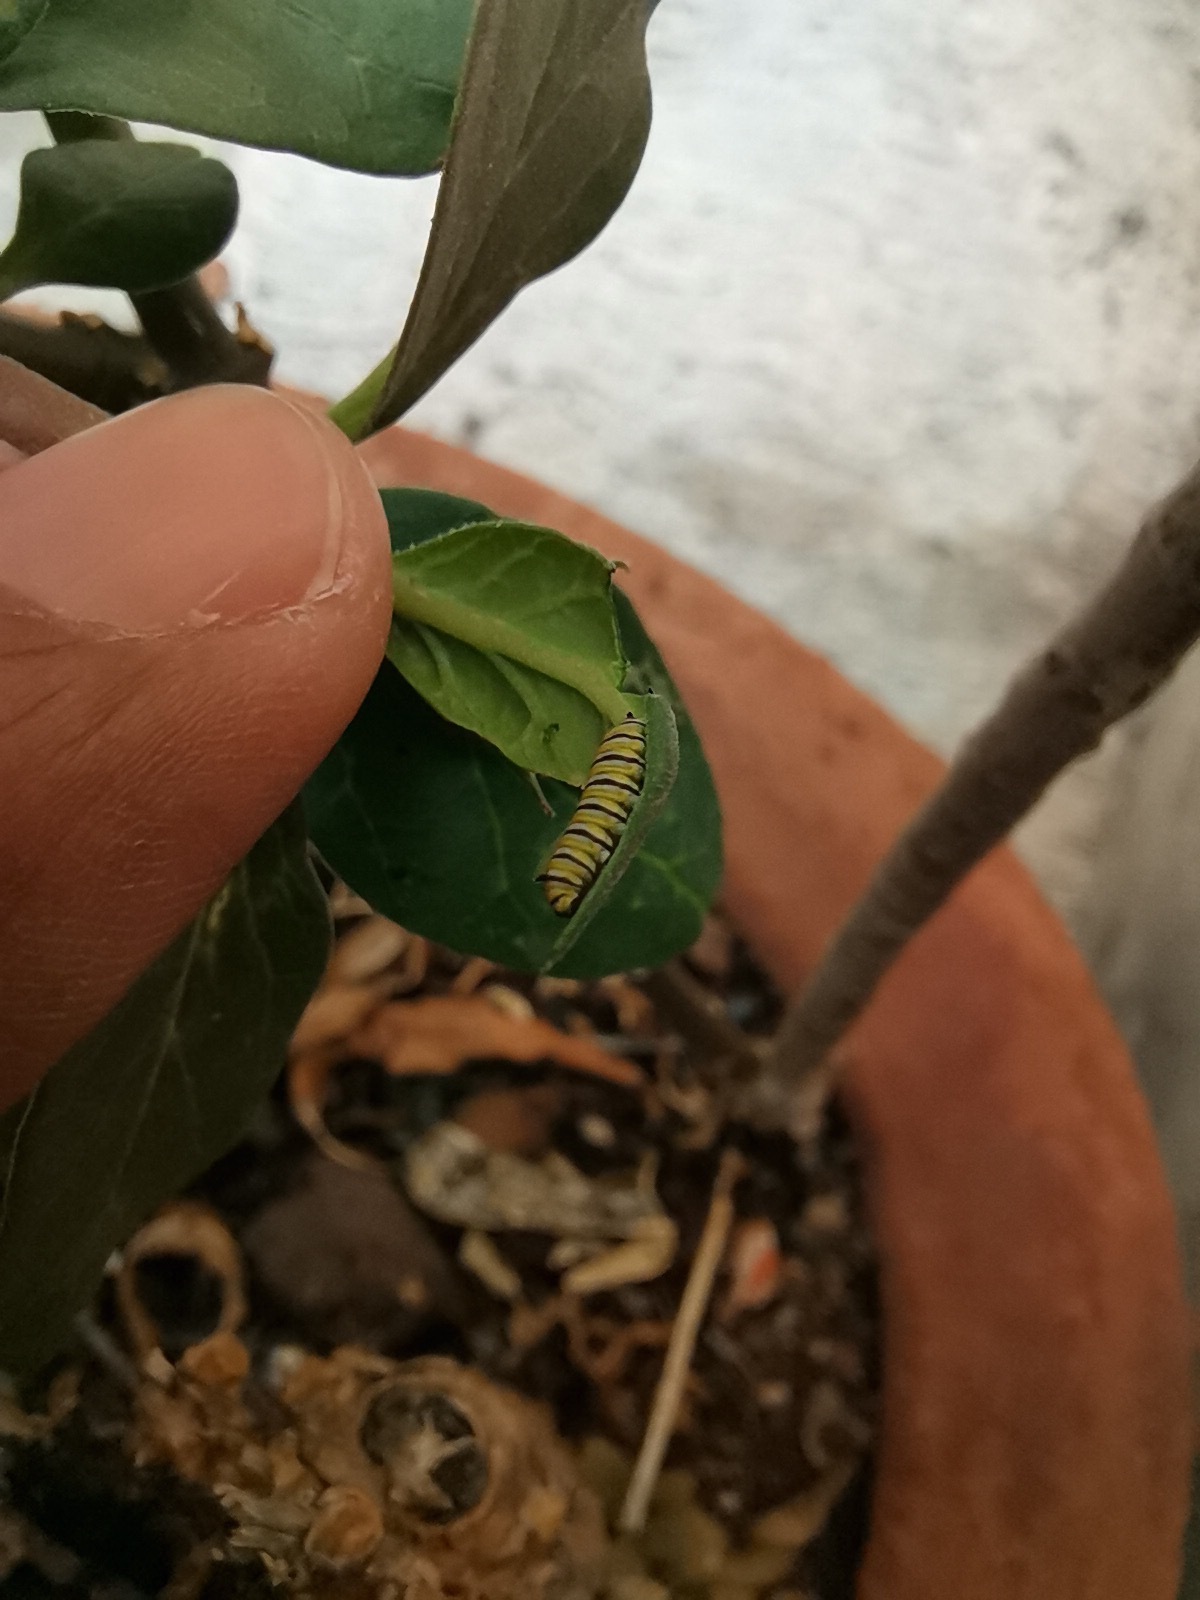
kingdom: Animalia
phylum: Arthropoda
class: Insecta
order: Lepidoptera
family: Nymphalidae
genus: Danaus
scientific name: Danaus plexippus
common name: Monarch
